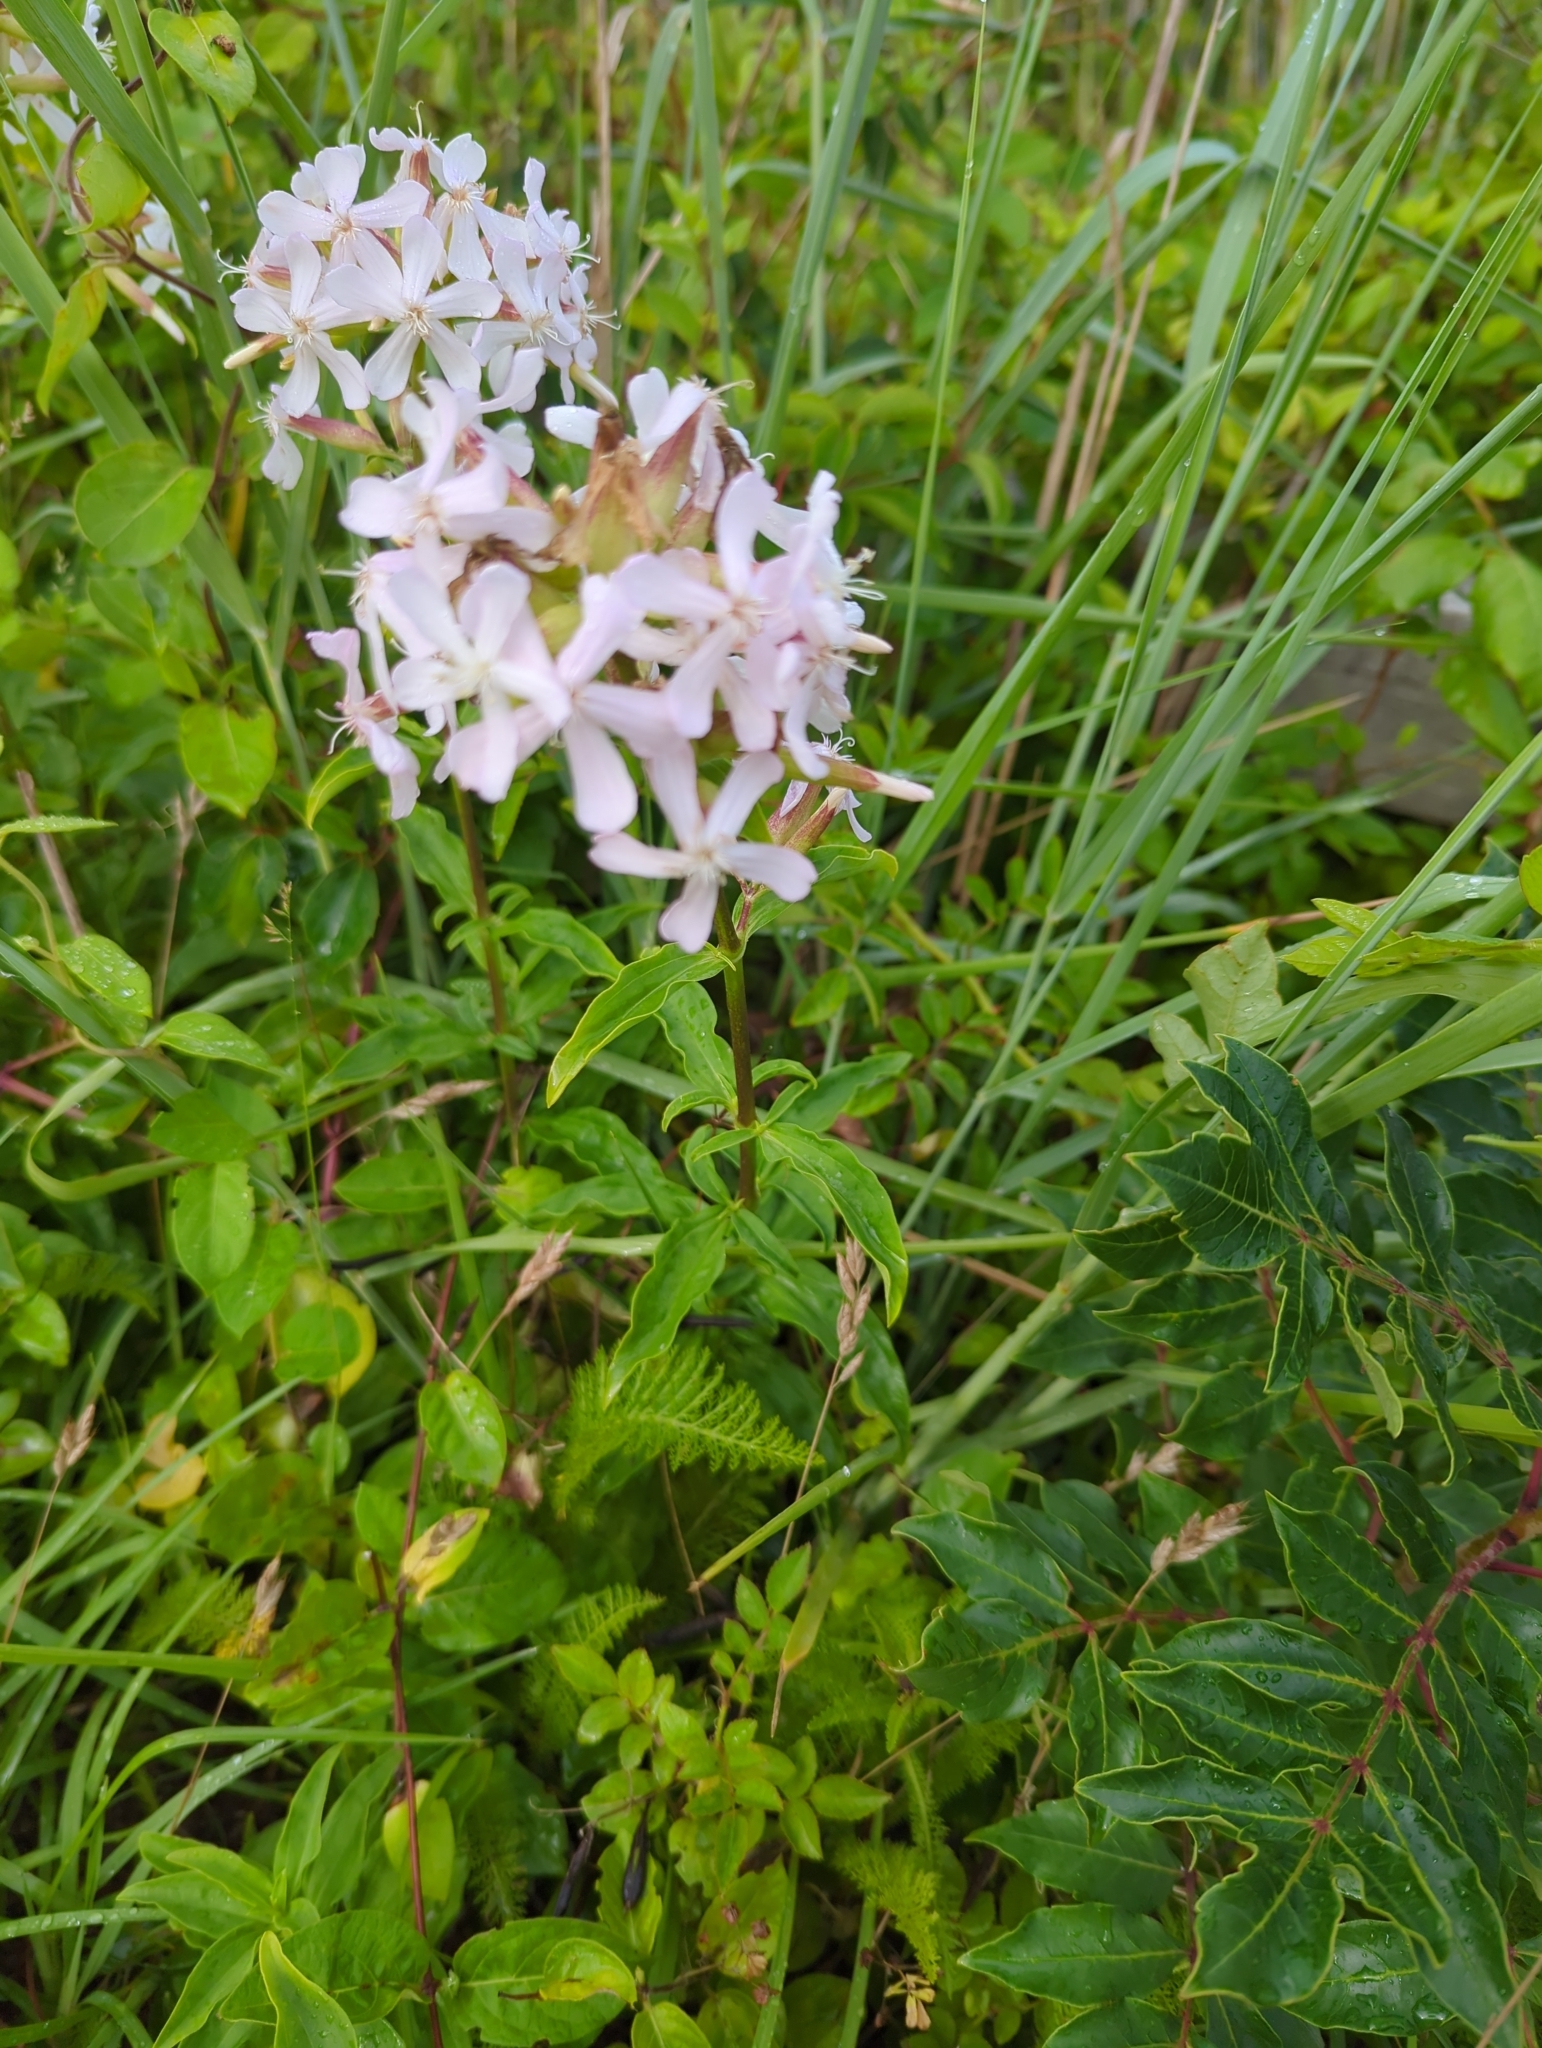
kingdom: Plantae
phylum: Tracheophyta
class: Magnoliopsida
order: Caryophyllales
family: Caryophyllaceae
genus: Saponaria
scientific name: Saponaria officinalis
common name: Soapwort
